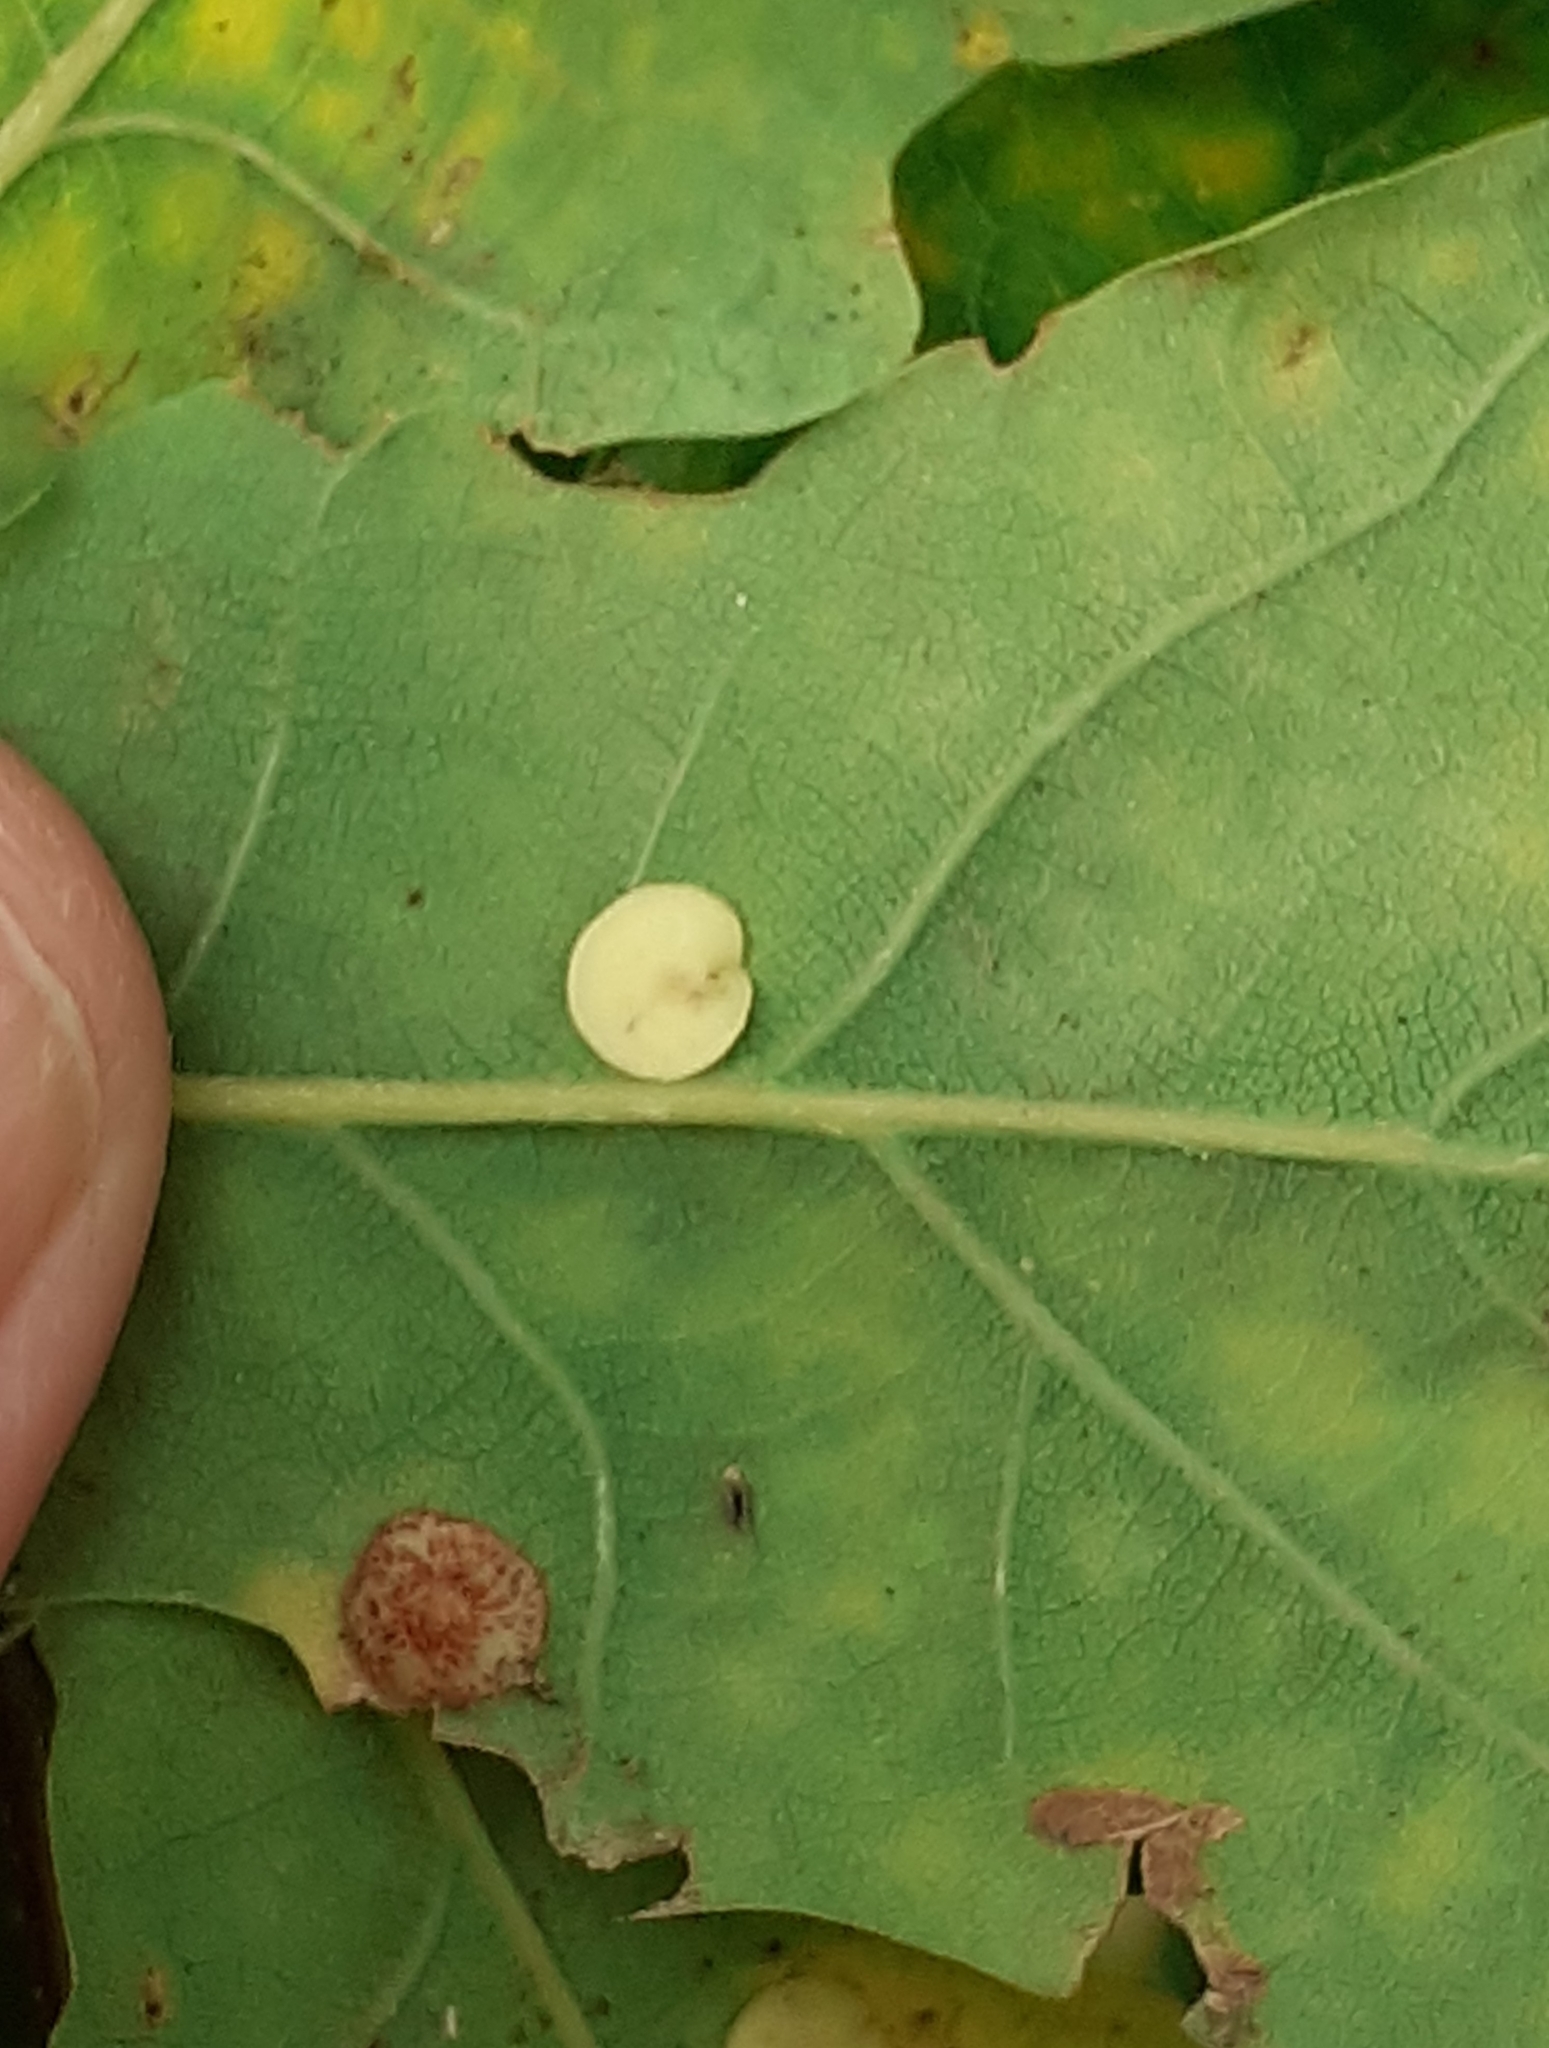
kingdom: Animalia
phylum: Arthropoda
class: Insecta
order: Hymenoptera
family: Cynipidae
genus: Neuroterus
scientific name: Neuroterus albipes
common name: Smooth spangle gall
